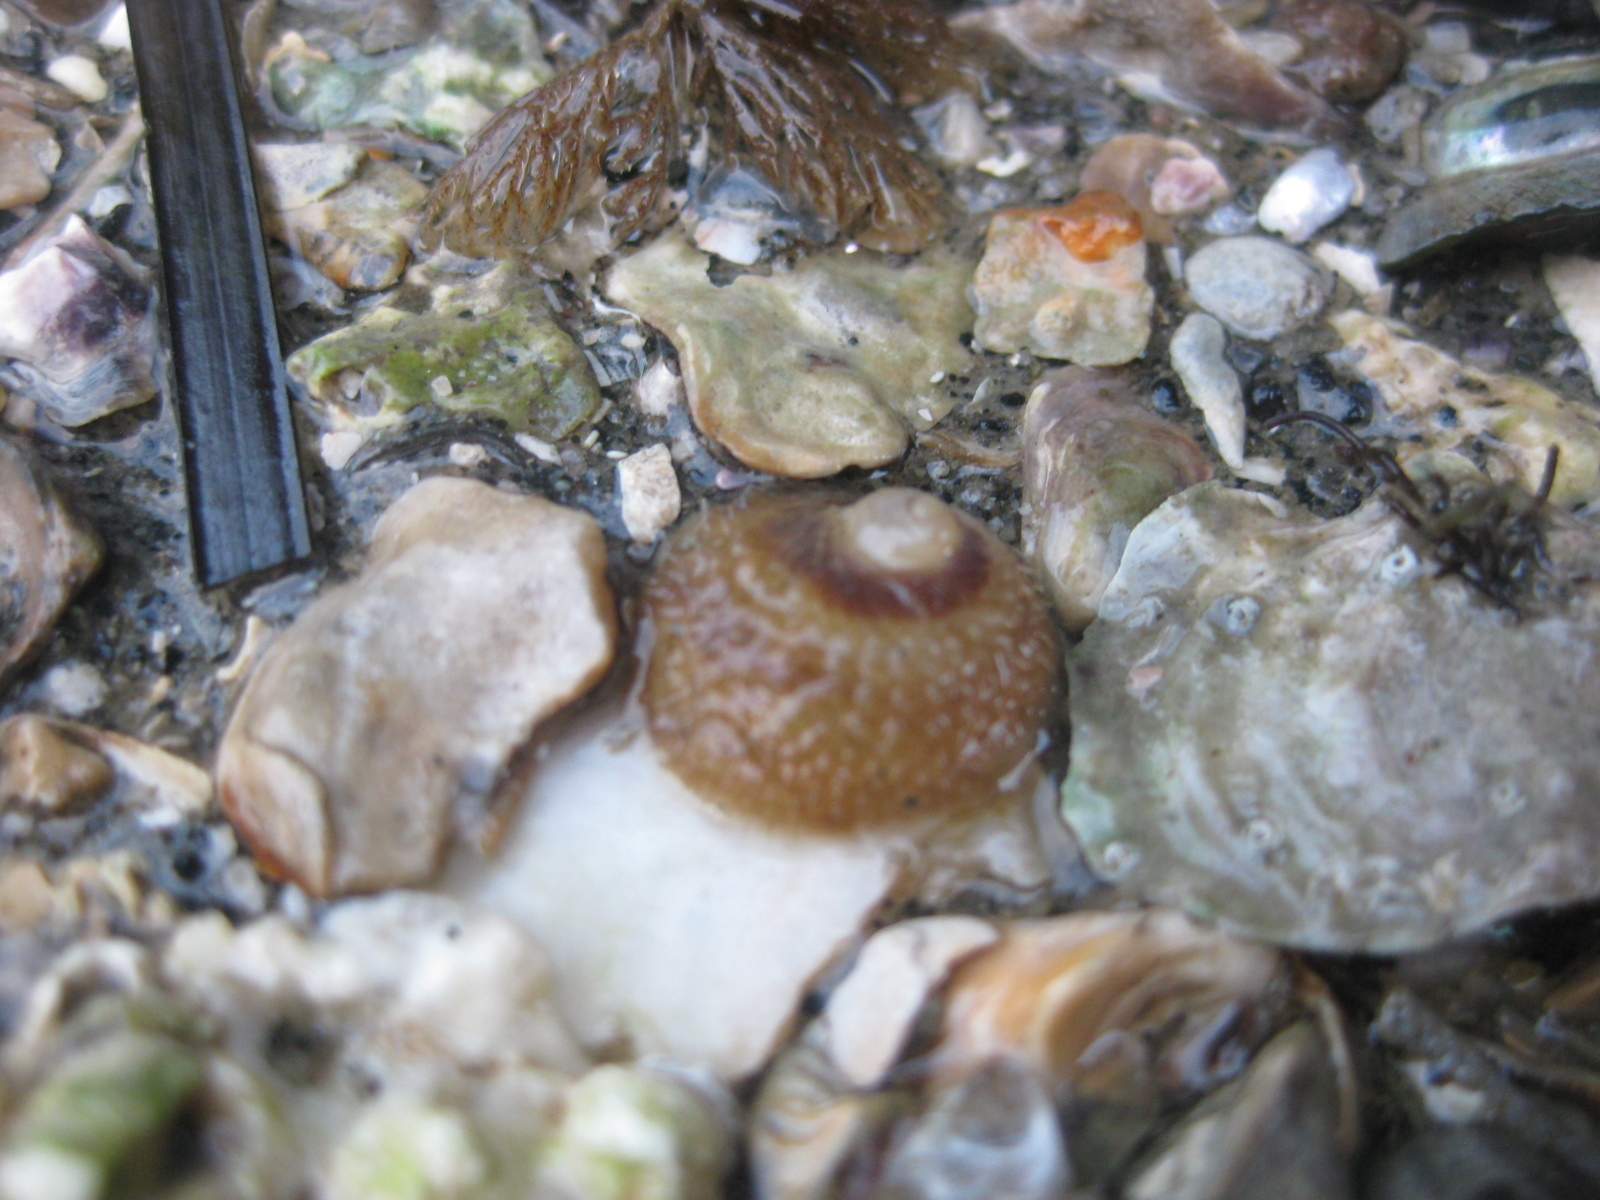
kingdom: Animalia
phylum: Mollusca
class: Gastropoda
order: Littorinimorpha
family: Calyptraeidae
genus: Sigapatella
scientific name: Sigapatella novaezelandiae
